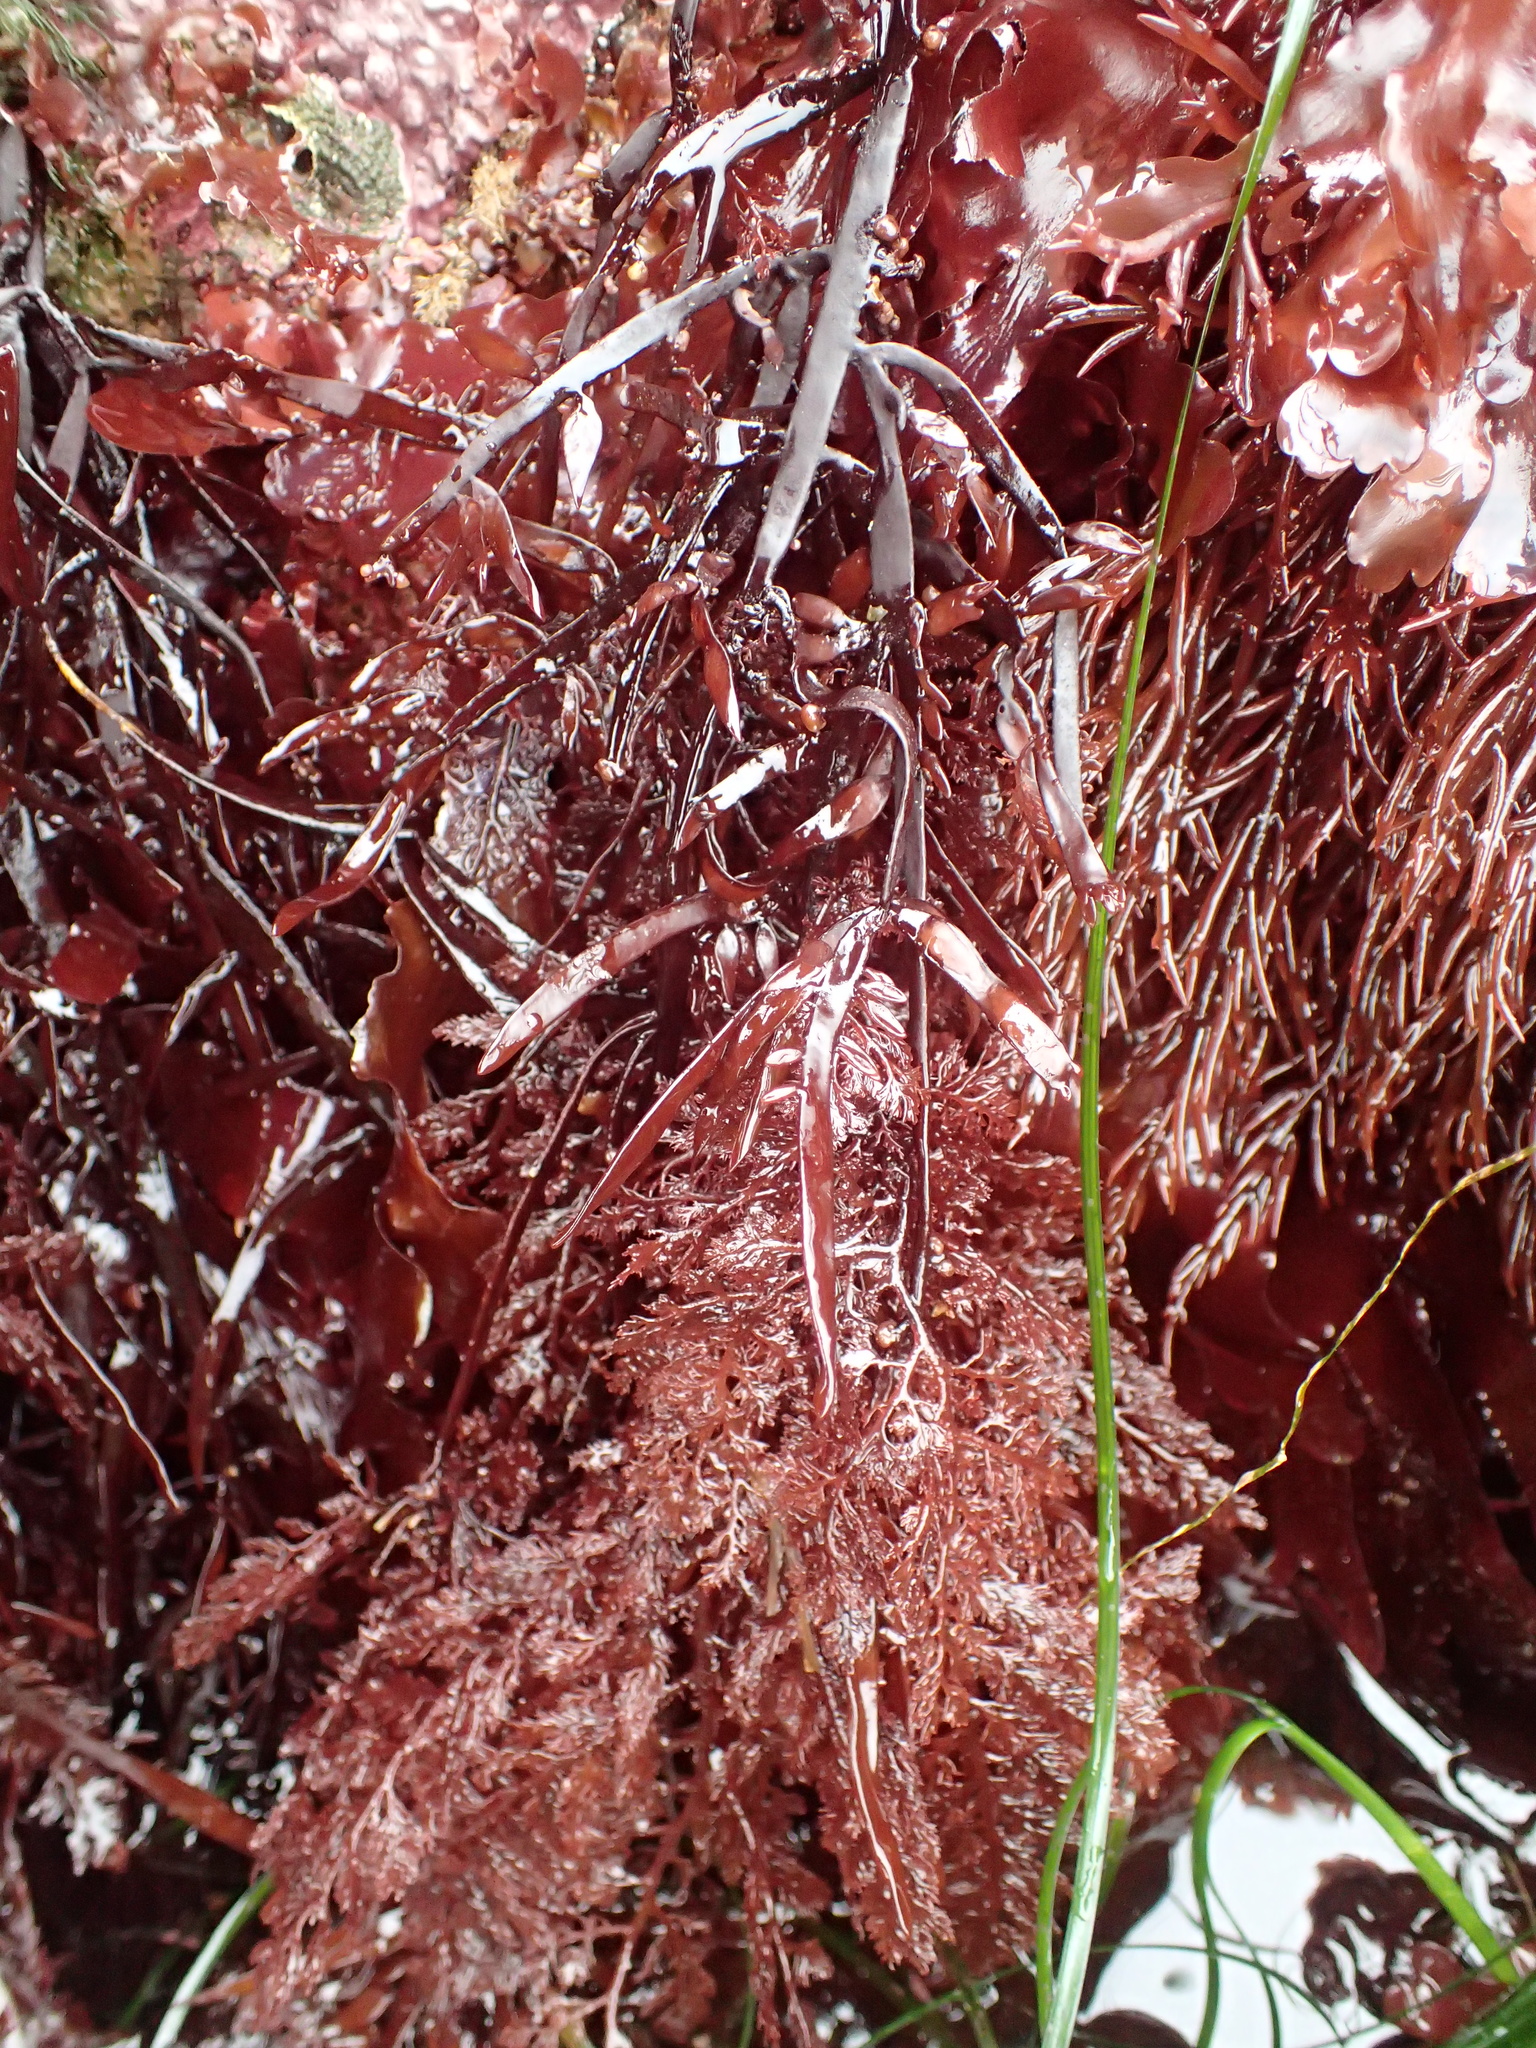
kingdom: Plantae
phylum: Rhodophyta
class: Florideophyceae
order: Ceramiales
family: Ceramiaceae
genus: Microcladia
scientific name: Microcladia coulteri
